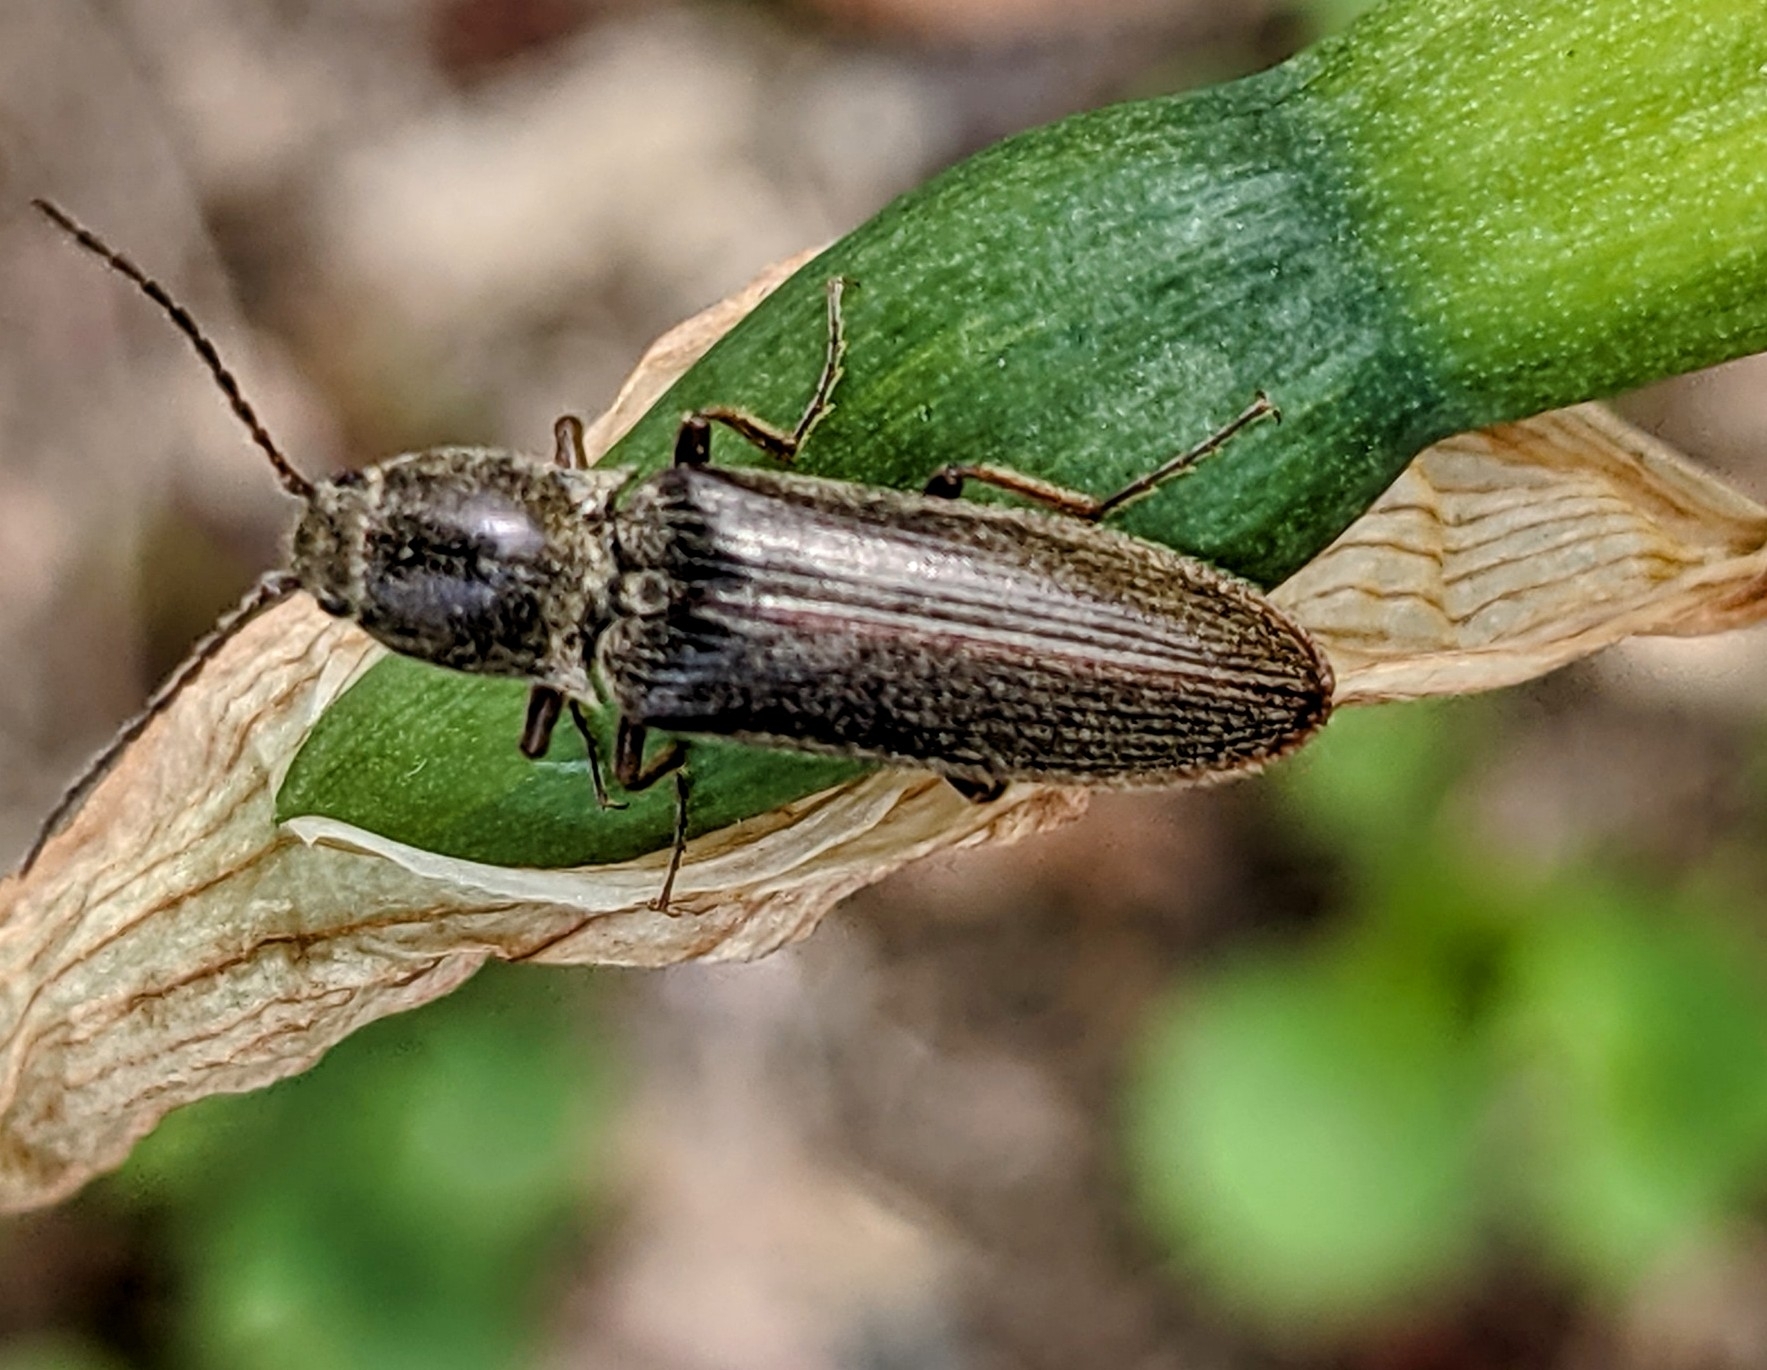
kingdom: Animalia
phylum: Arthropoda
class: Insecta
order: Coleoptera
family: Elateridae
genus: Sylvanelater
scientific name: Sylvanelater cylindriformis
